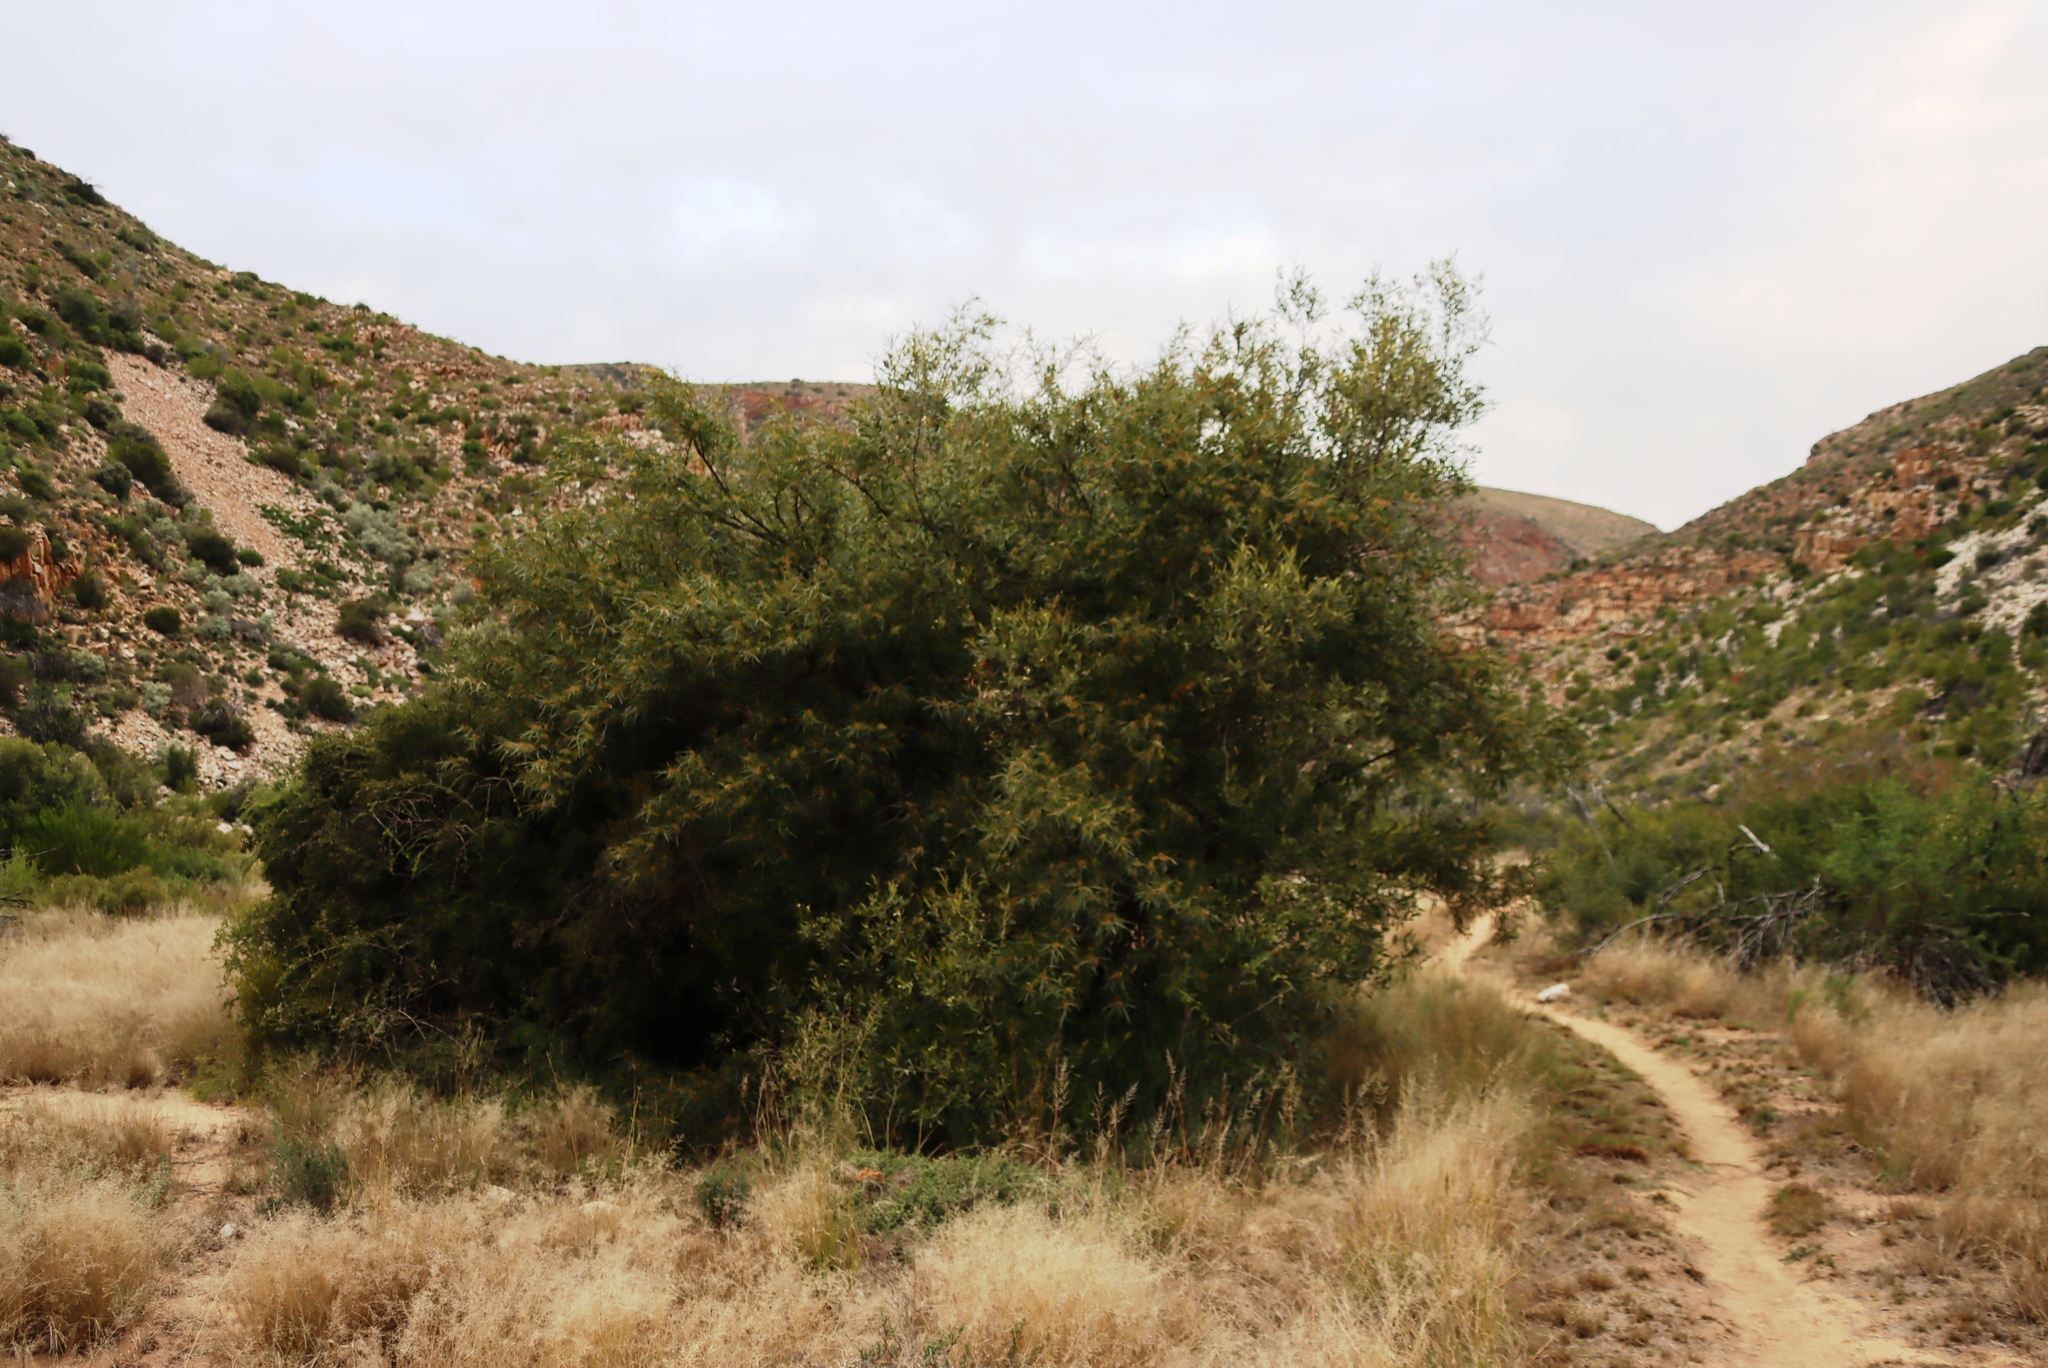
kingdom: Plantae
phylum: Tracheophyta
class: Magnoliopsida
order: Sapindales
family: Anacardiaceae
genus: Searsia
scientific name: Searsia lancea
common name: Cashew
